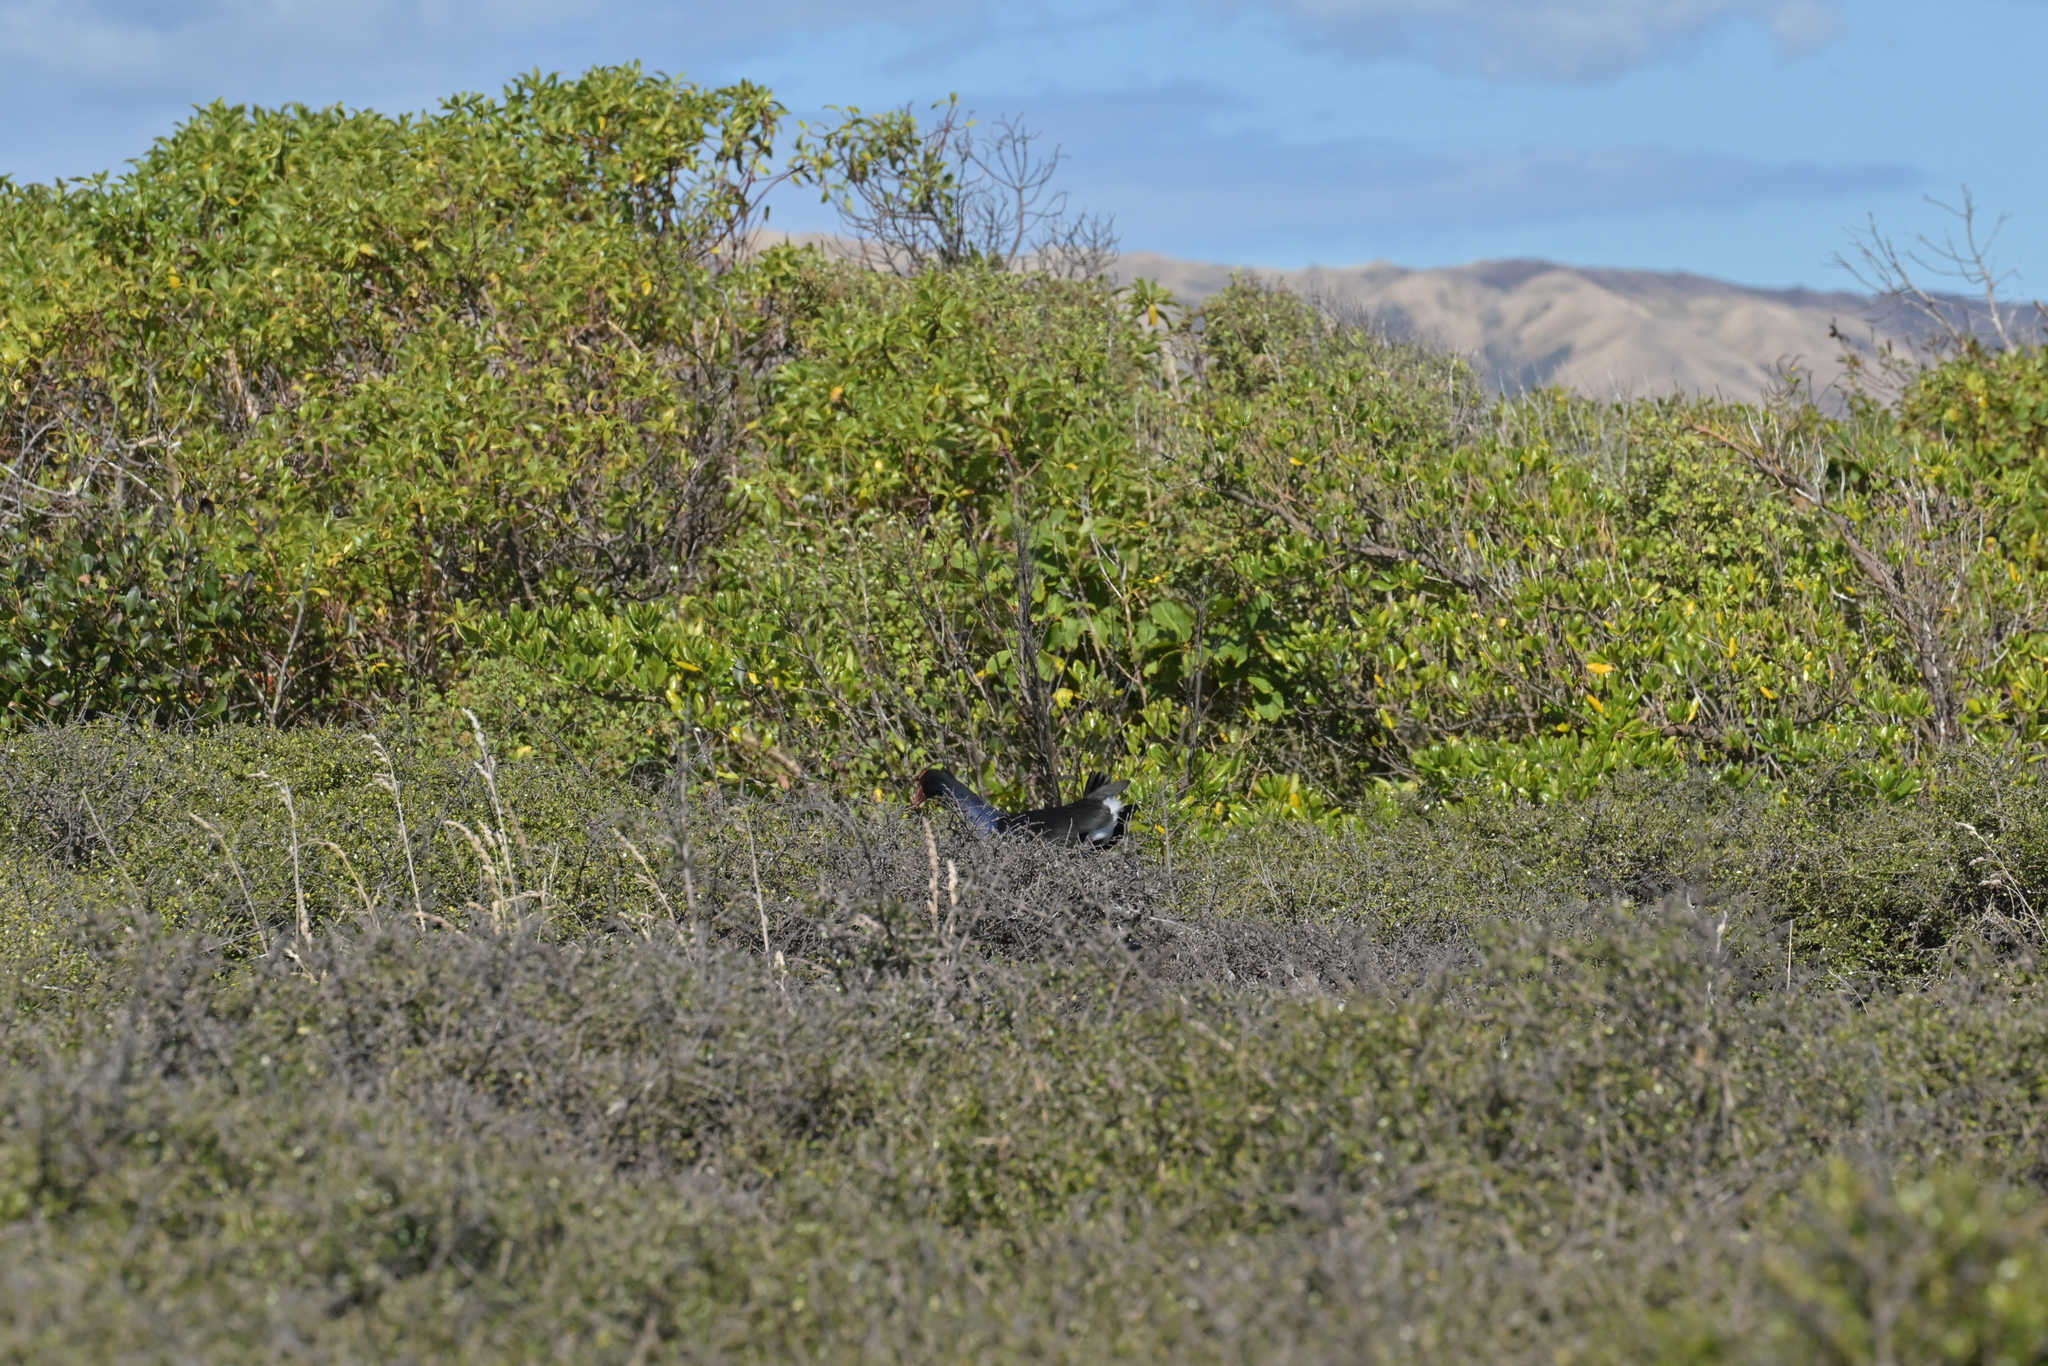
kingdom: Animalia
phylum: Chordata
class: Aves
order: Gruiformes
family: Rallidae
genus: Porphyrio
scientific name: Porphyrio melanotus
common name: Australasian swamphen
